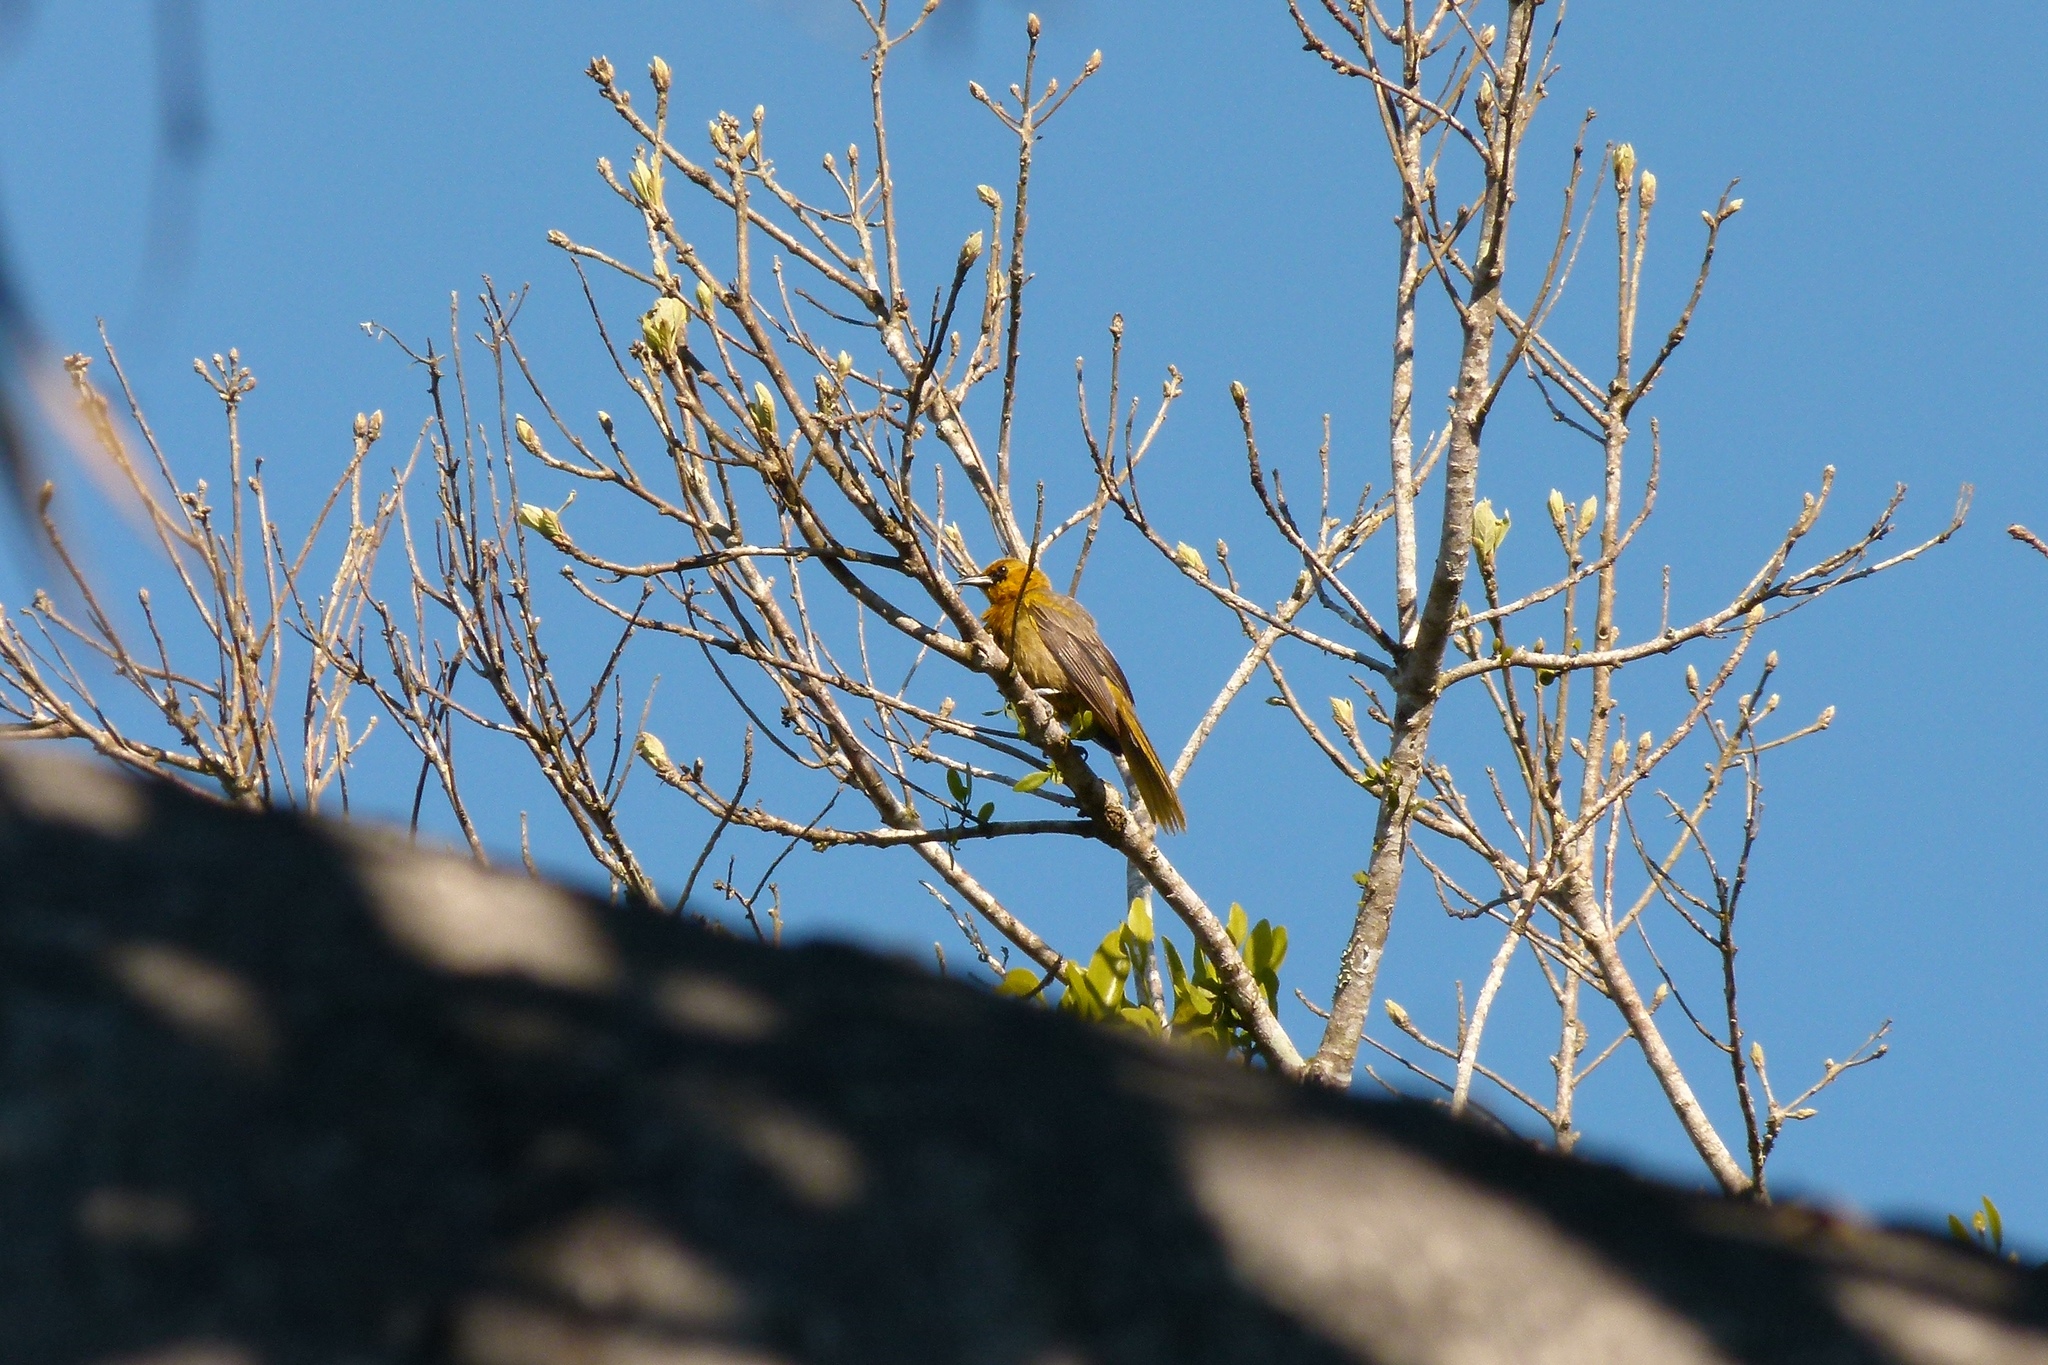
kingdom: Animalia
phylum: Chordata
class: Aves
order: Passeriformes
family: Icteridae
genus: Icterus
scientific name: Icterus portoricensis
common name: Puerto rican oriole
